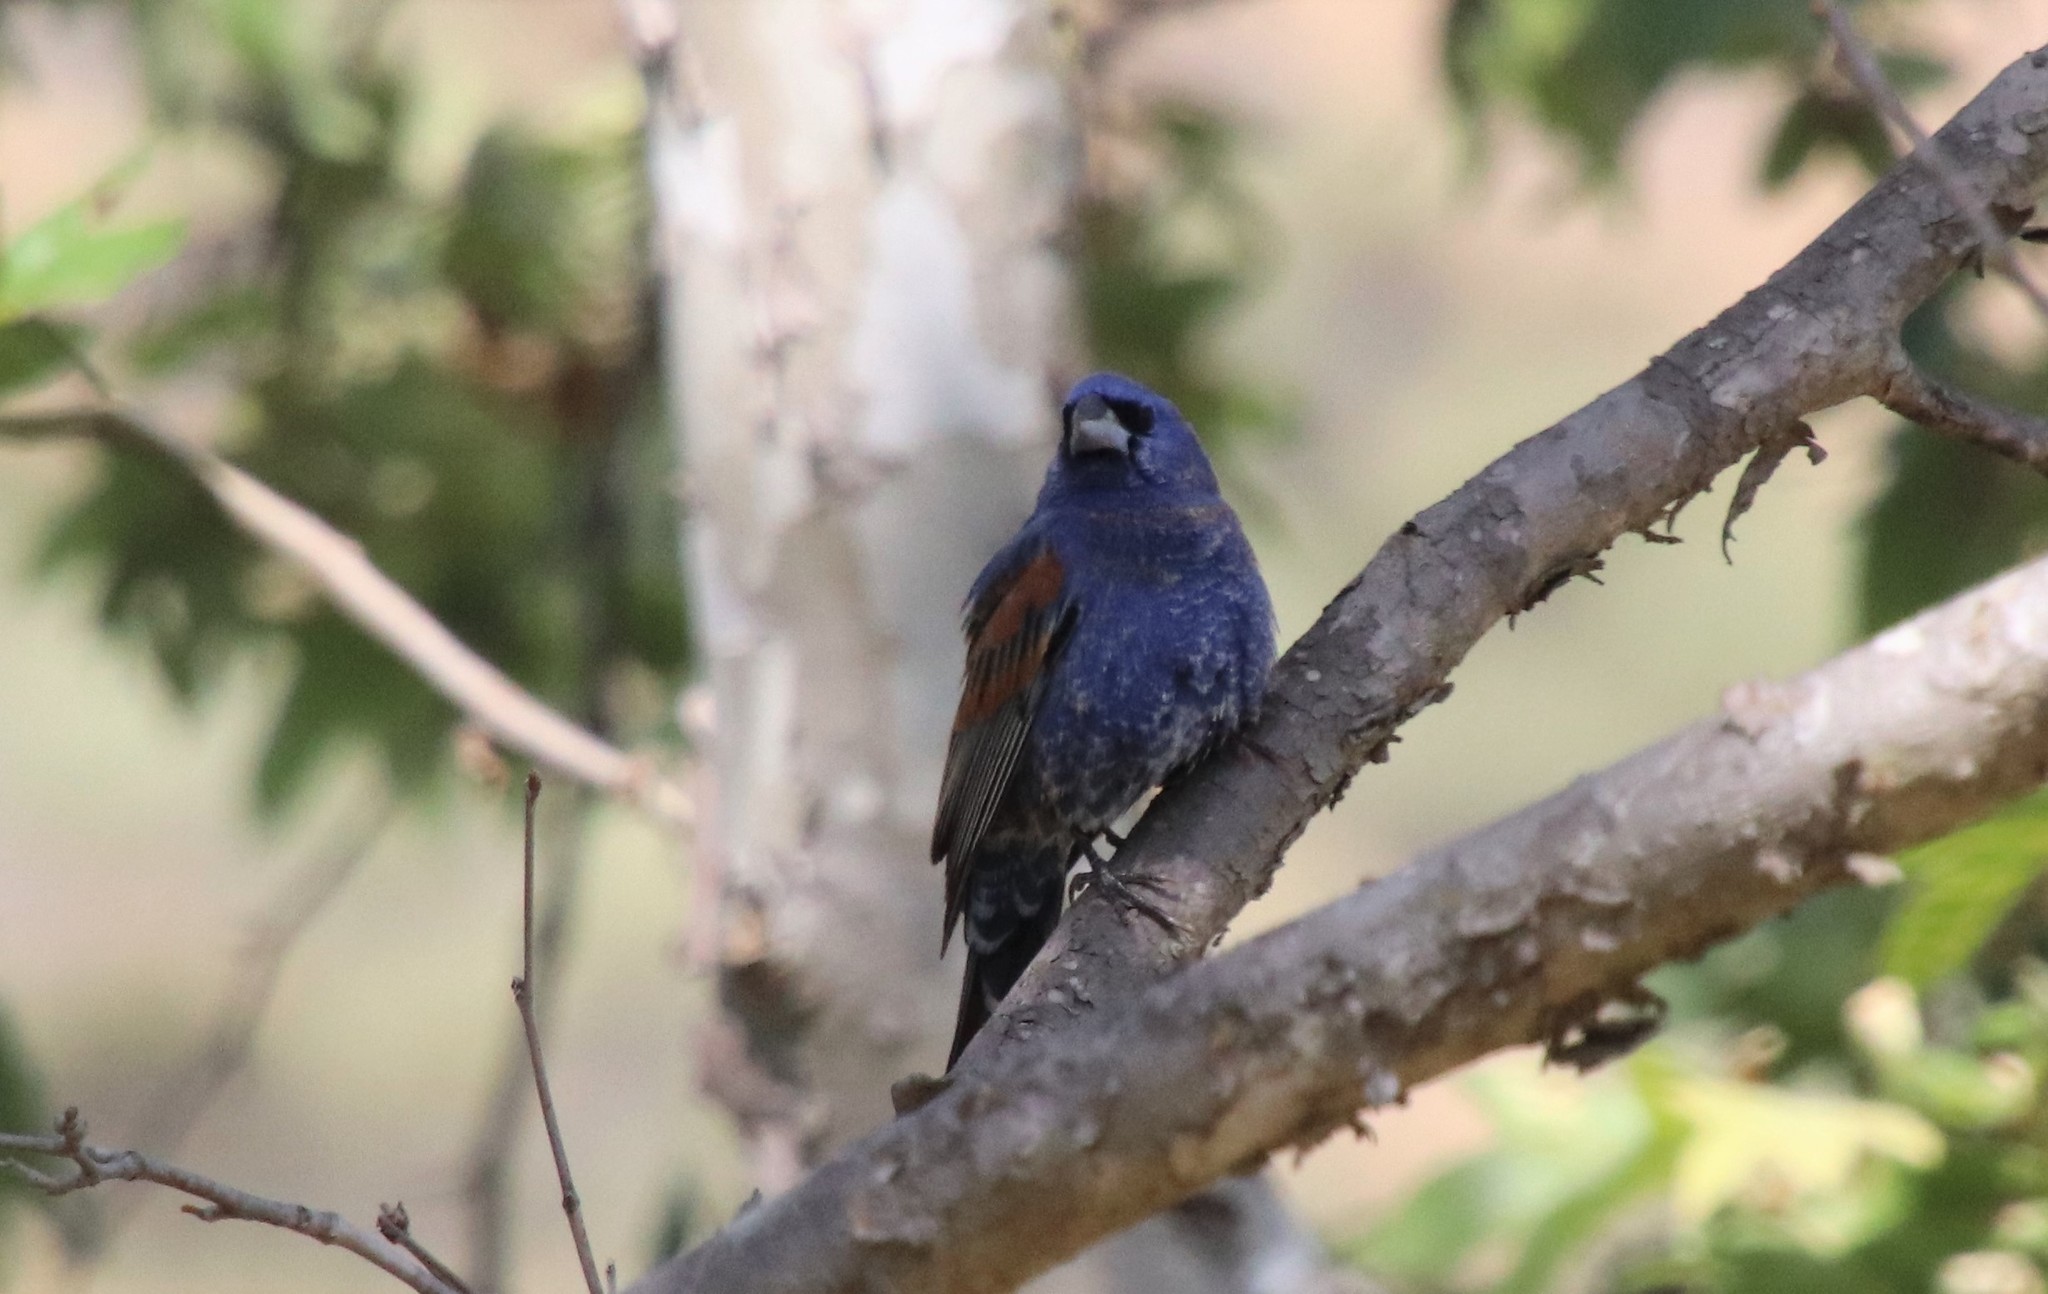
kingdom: Animalia
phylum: Chordata
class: Aves
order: Passeriformes
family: Cardinalidae
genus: Passerina
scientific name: Passerina caerulea
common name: Blue grosbeak
